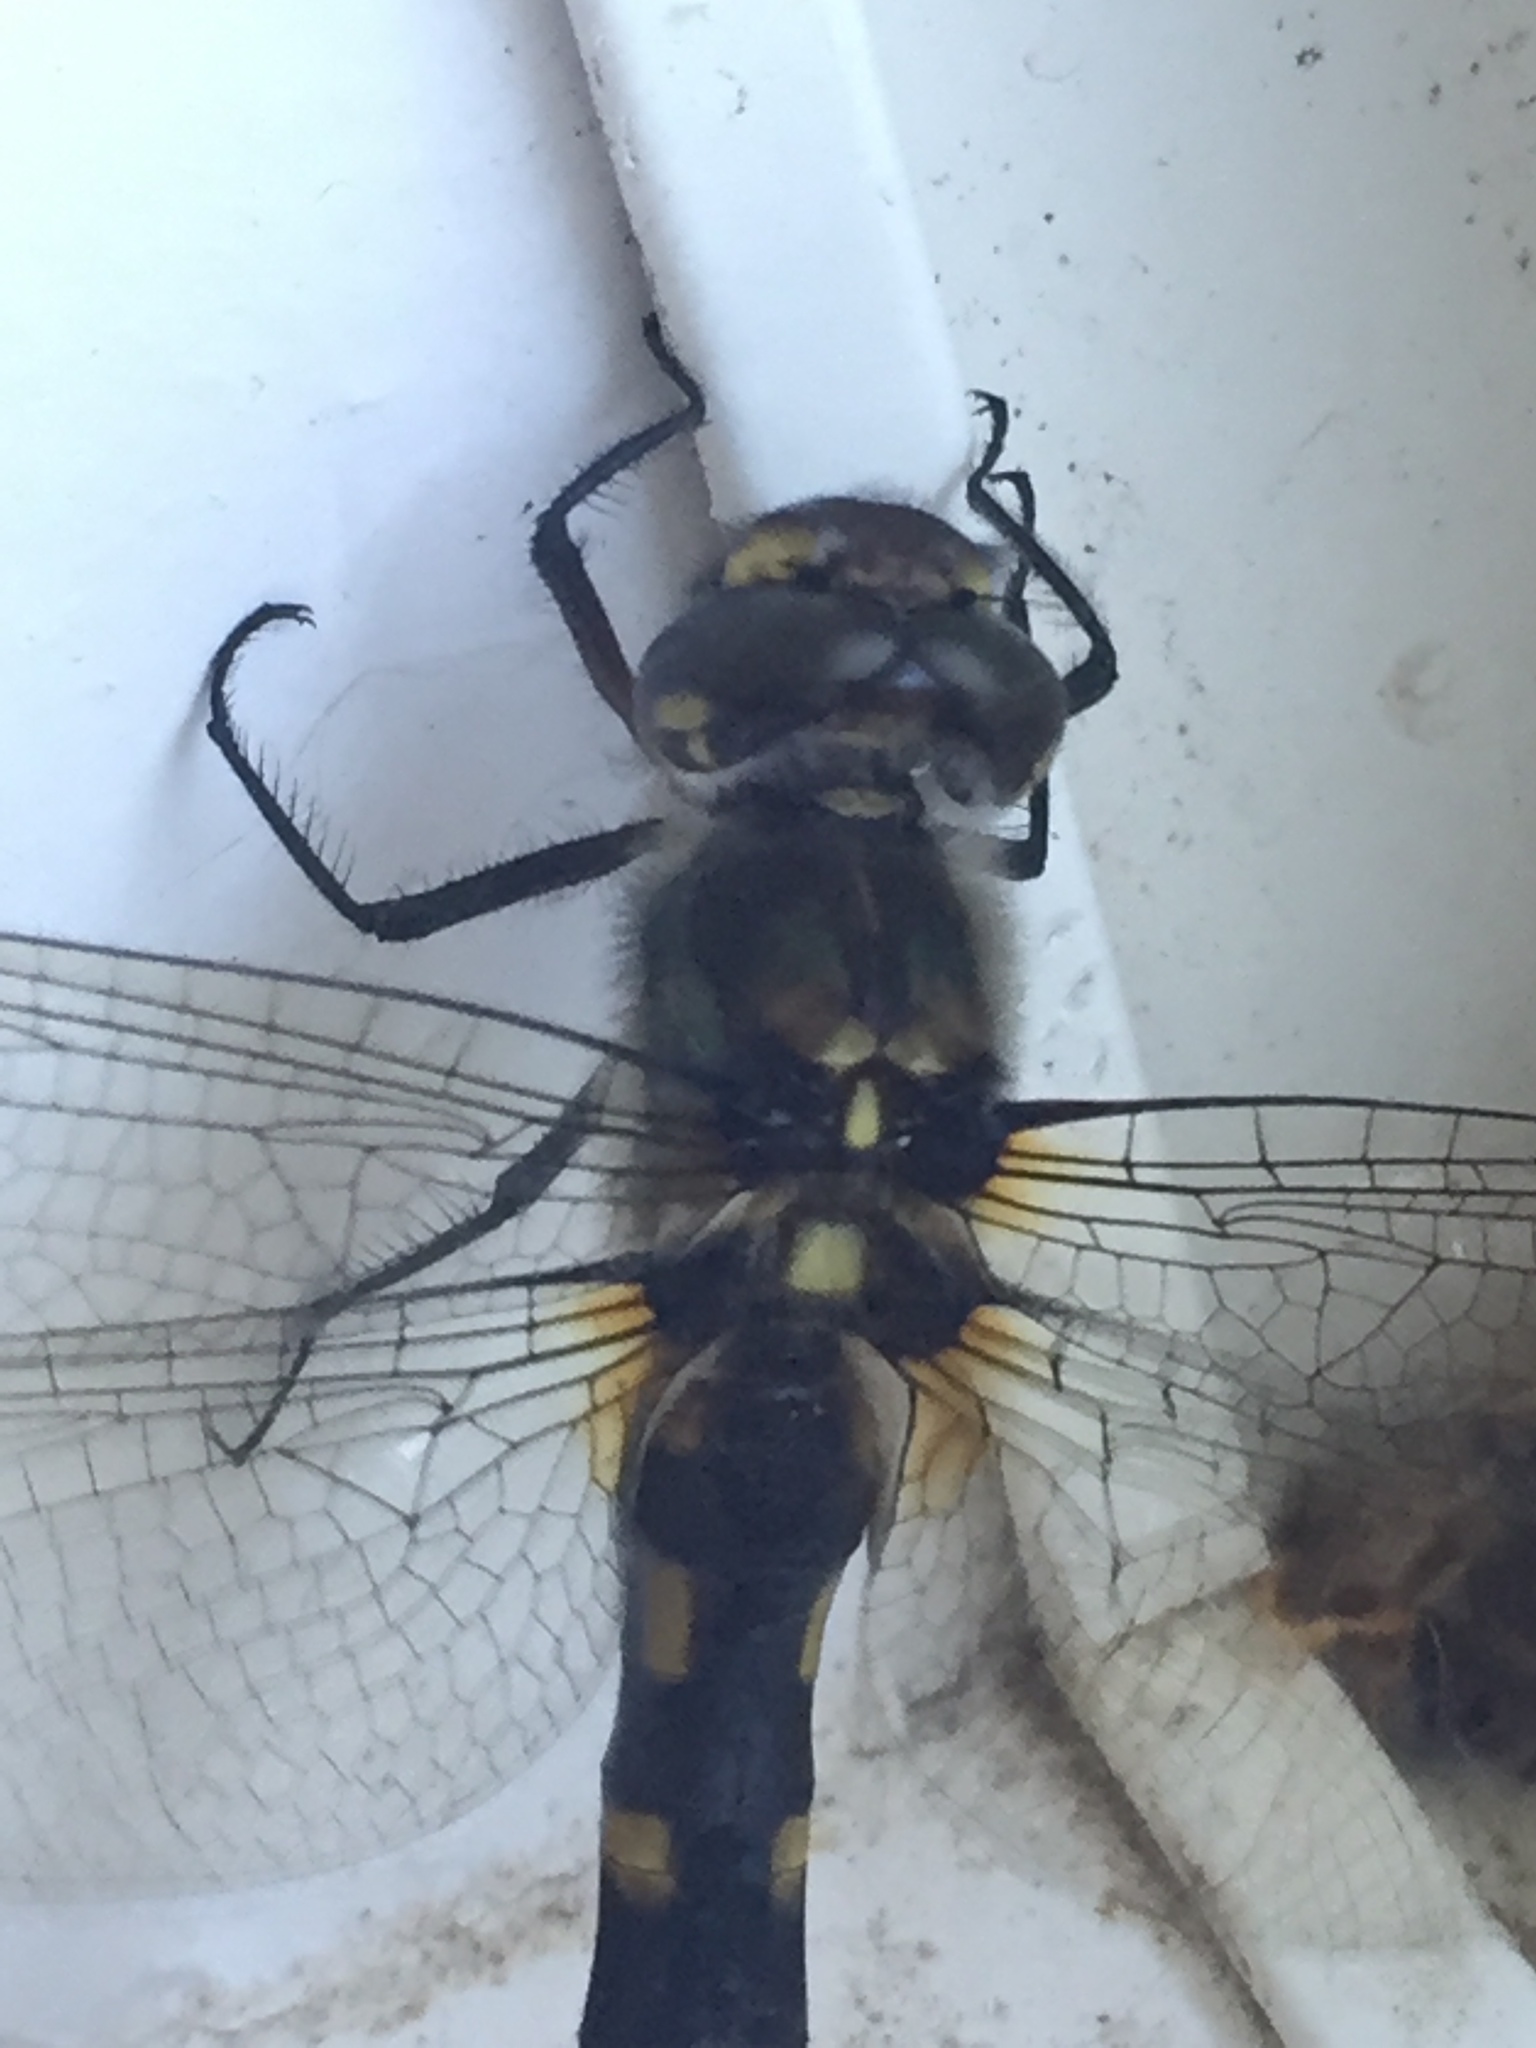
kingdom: Animalia
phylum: Arthropoda
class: Insecta
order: Odonata
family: Corduliidae
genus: Procordulia
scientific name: Procordulia grayi
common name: Yellow spotted dragonfly
